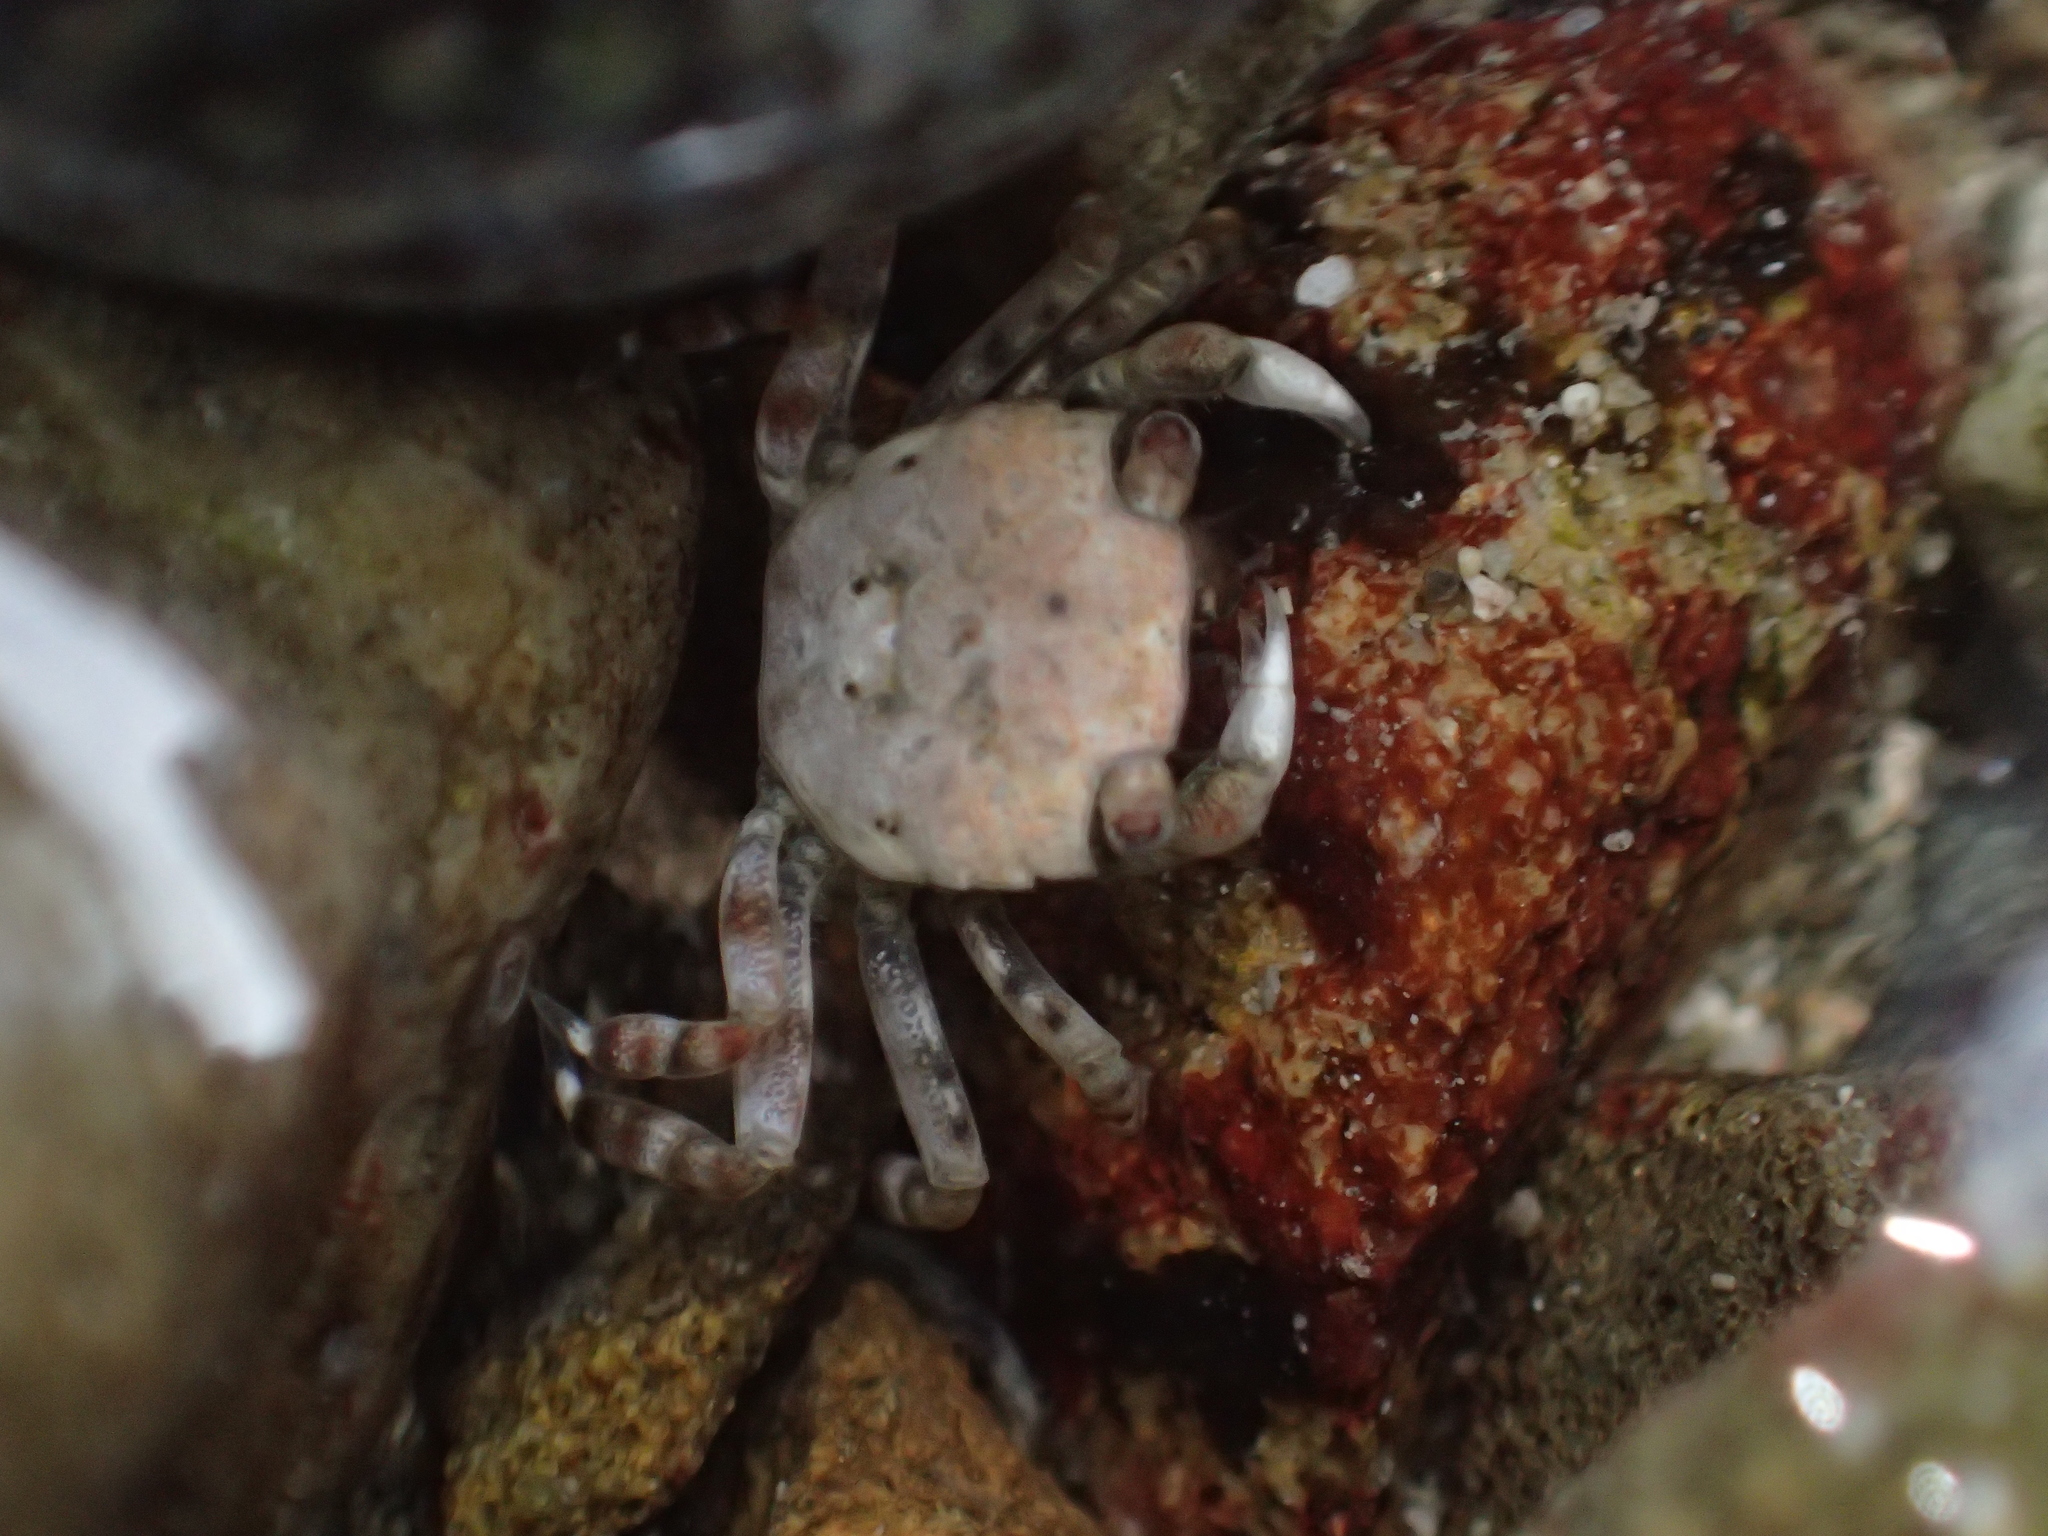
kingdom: Animalia
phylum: Arthropoda
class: Malacostraca
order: Decapoda
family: Varunidae
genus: Hemigrapsus
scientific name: Hemigrapsus sexdentatus
